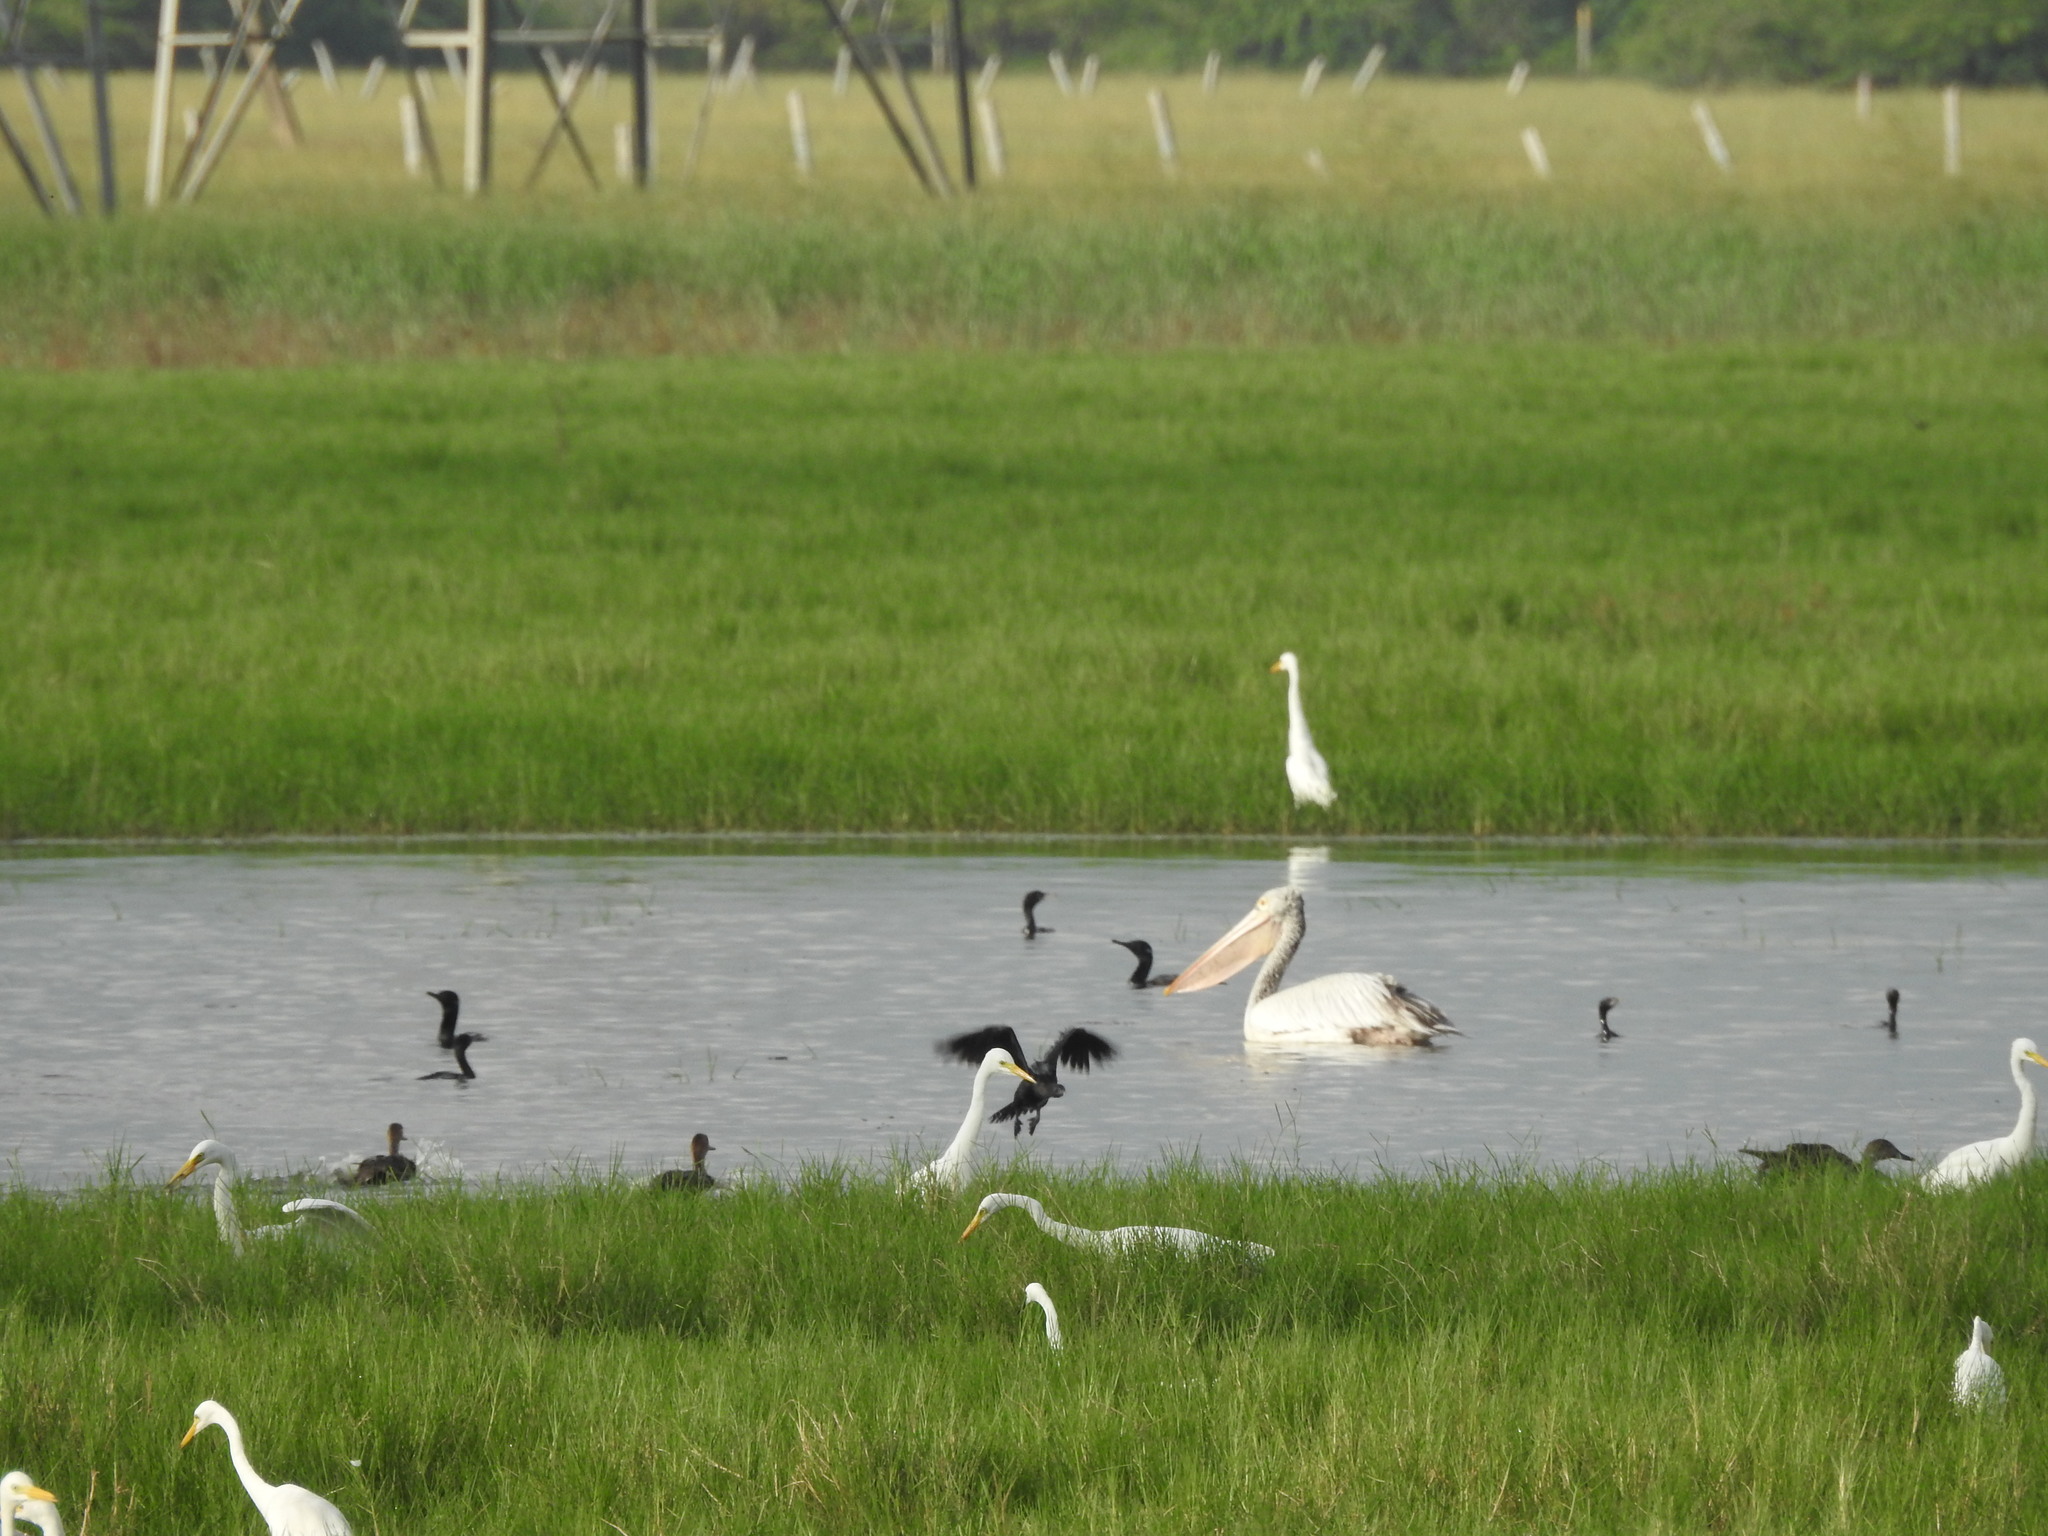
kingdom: Animalia
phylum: Chordata
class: Aves
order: Pelecaniformes
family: Pelecanidae
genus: Pelecanus
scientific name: Pelecanus philippensis
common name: Spot-billed pelican
